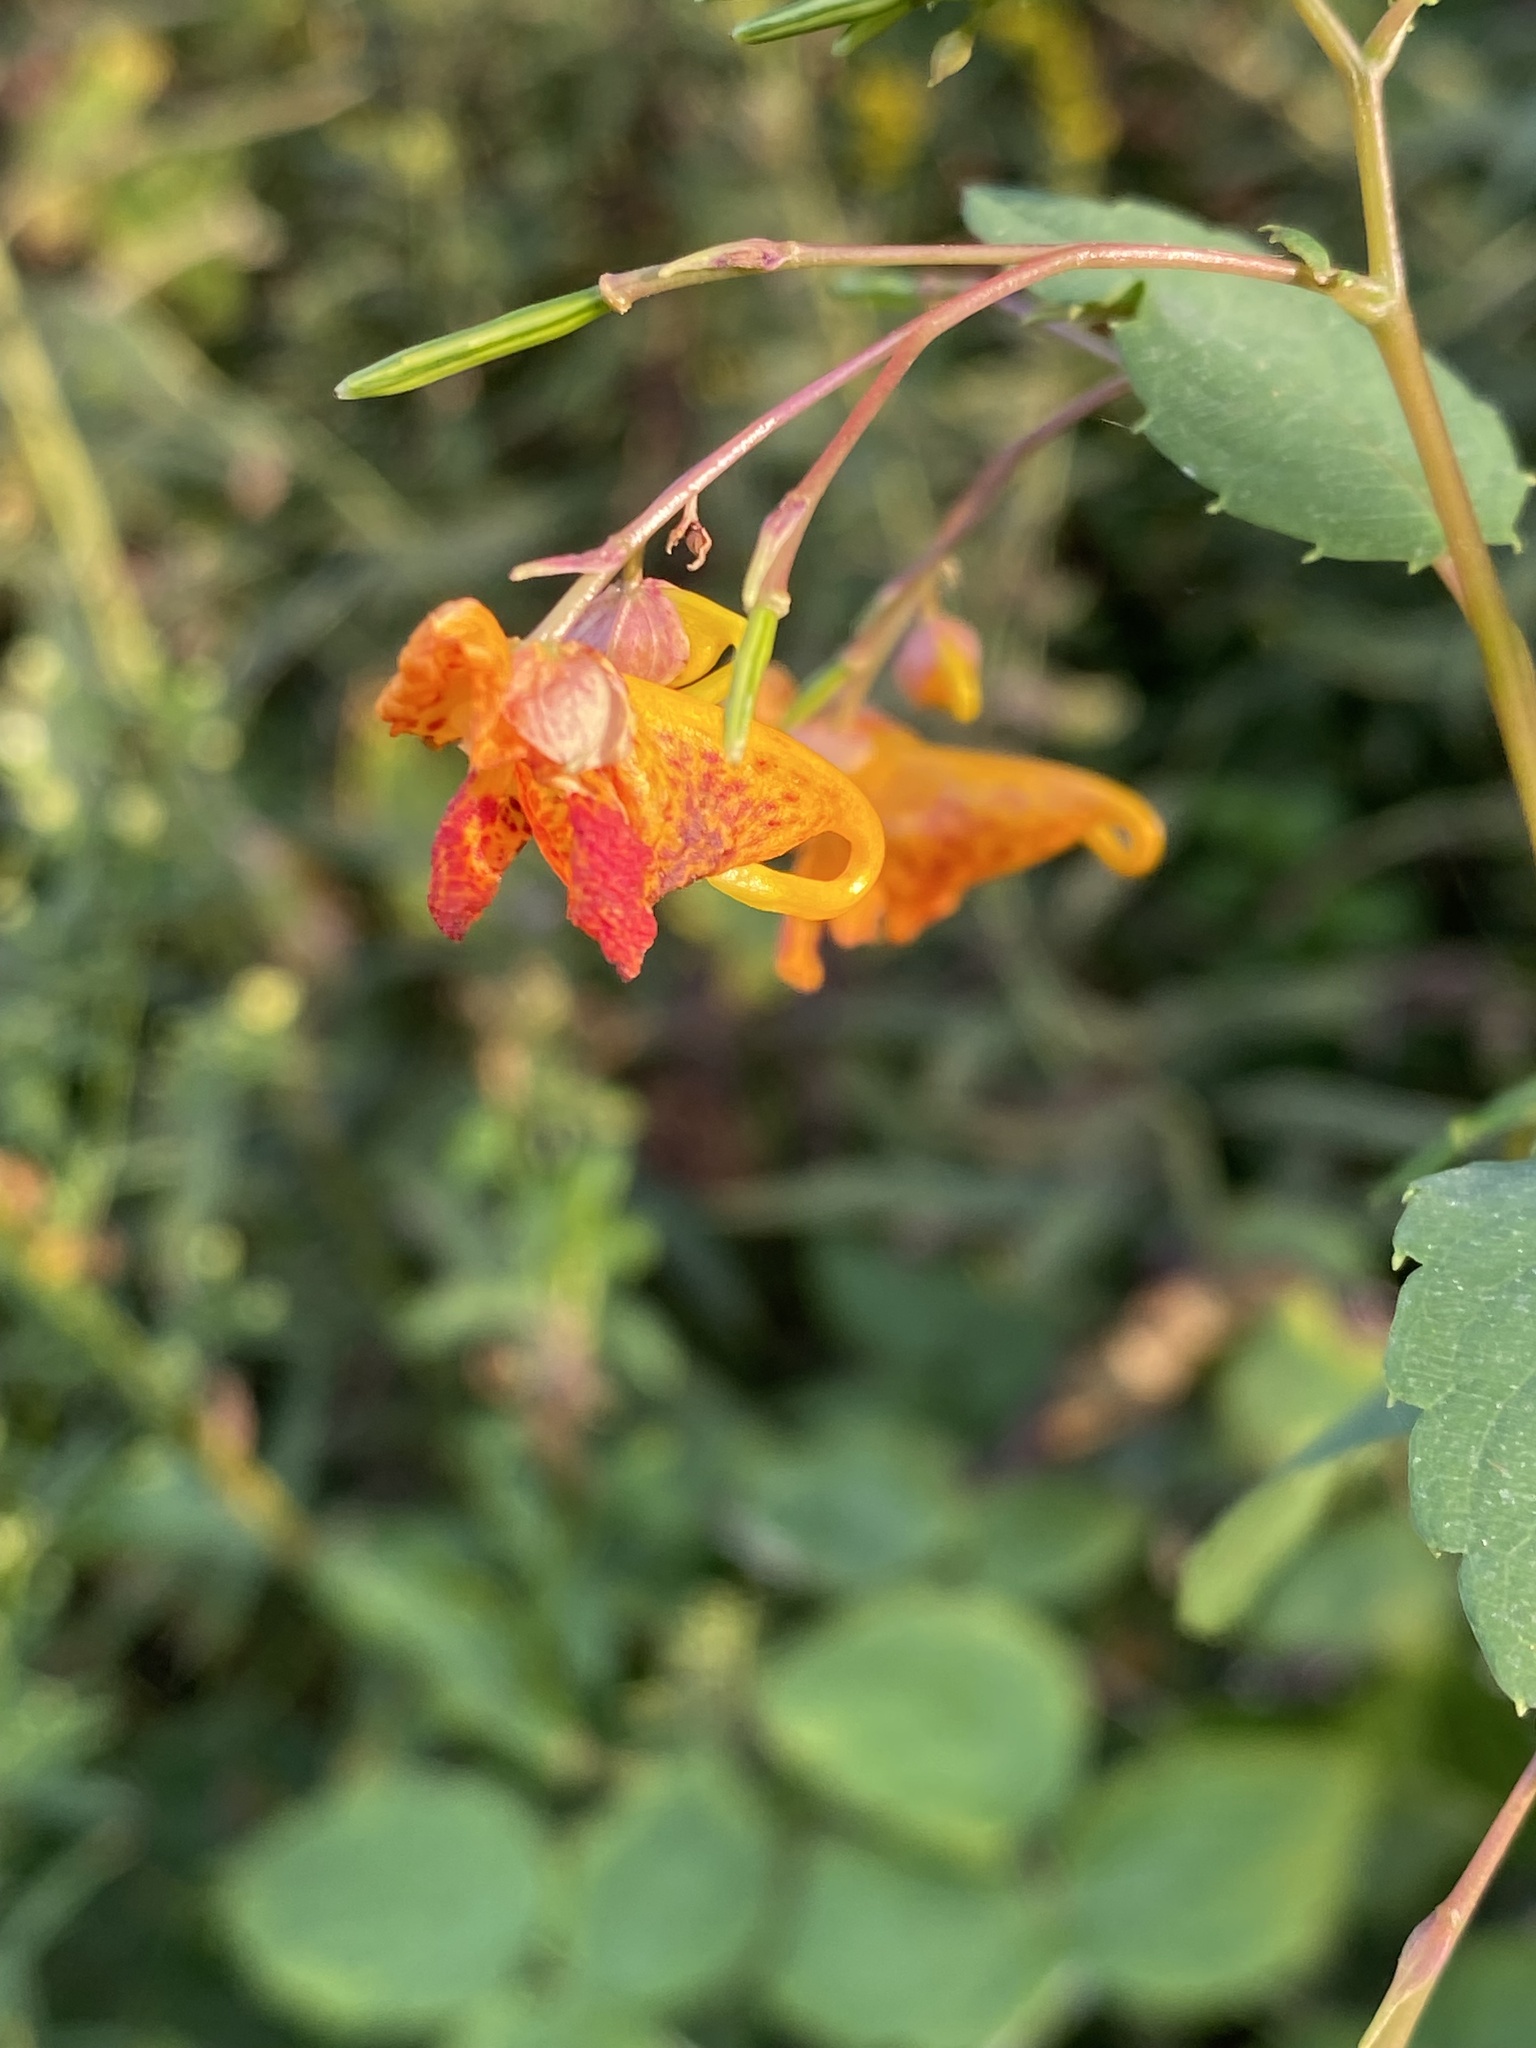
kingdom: Plantae
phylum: Tracheophyta
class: Magnoliopsida
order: Ericales
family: Balsaminaceae
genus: Impatiens
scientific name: Impatiens capensis
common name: Orange balsam
